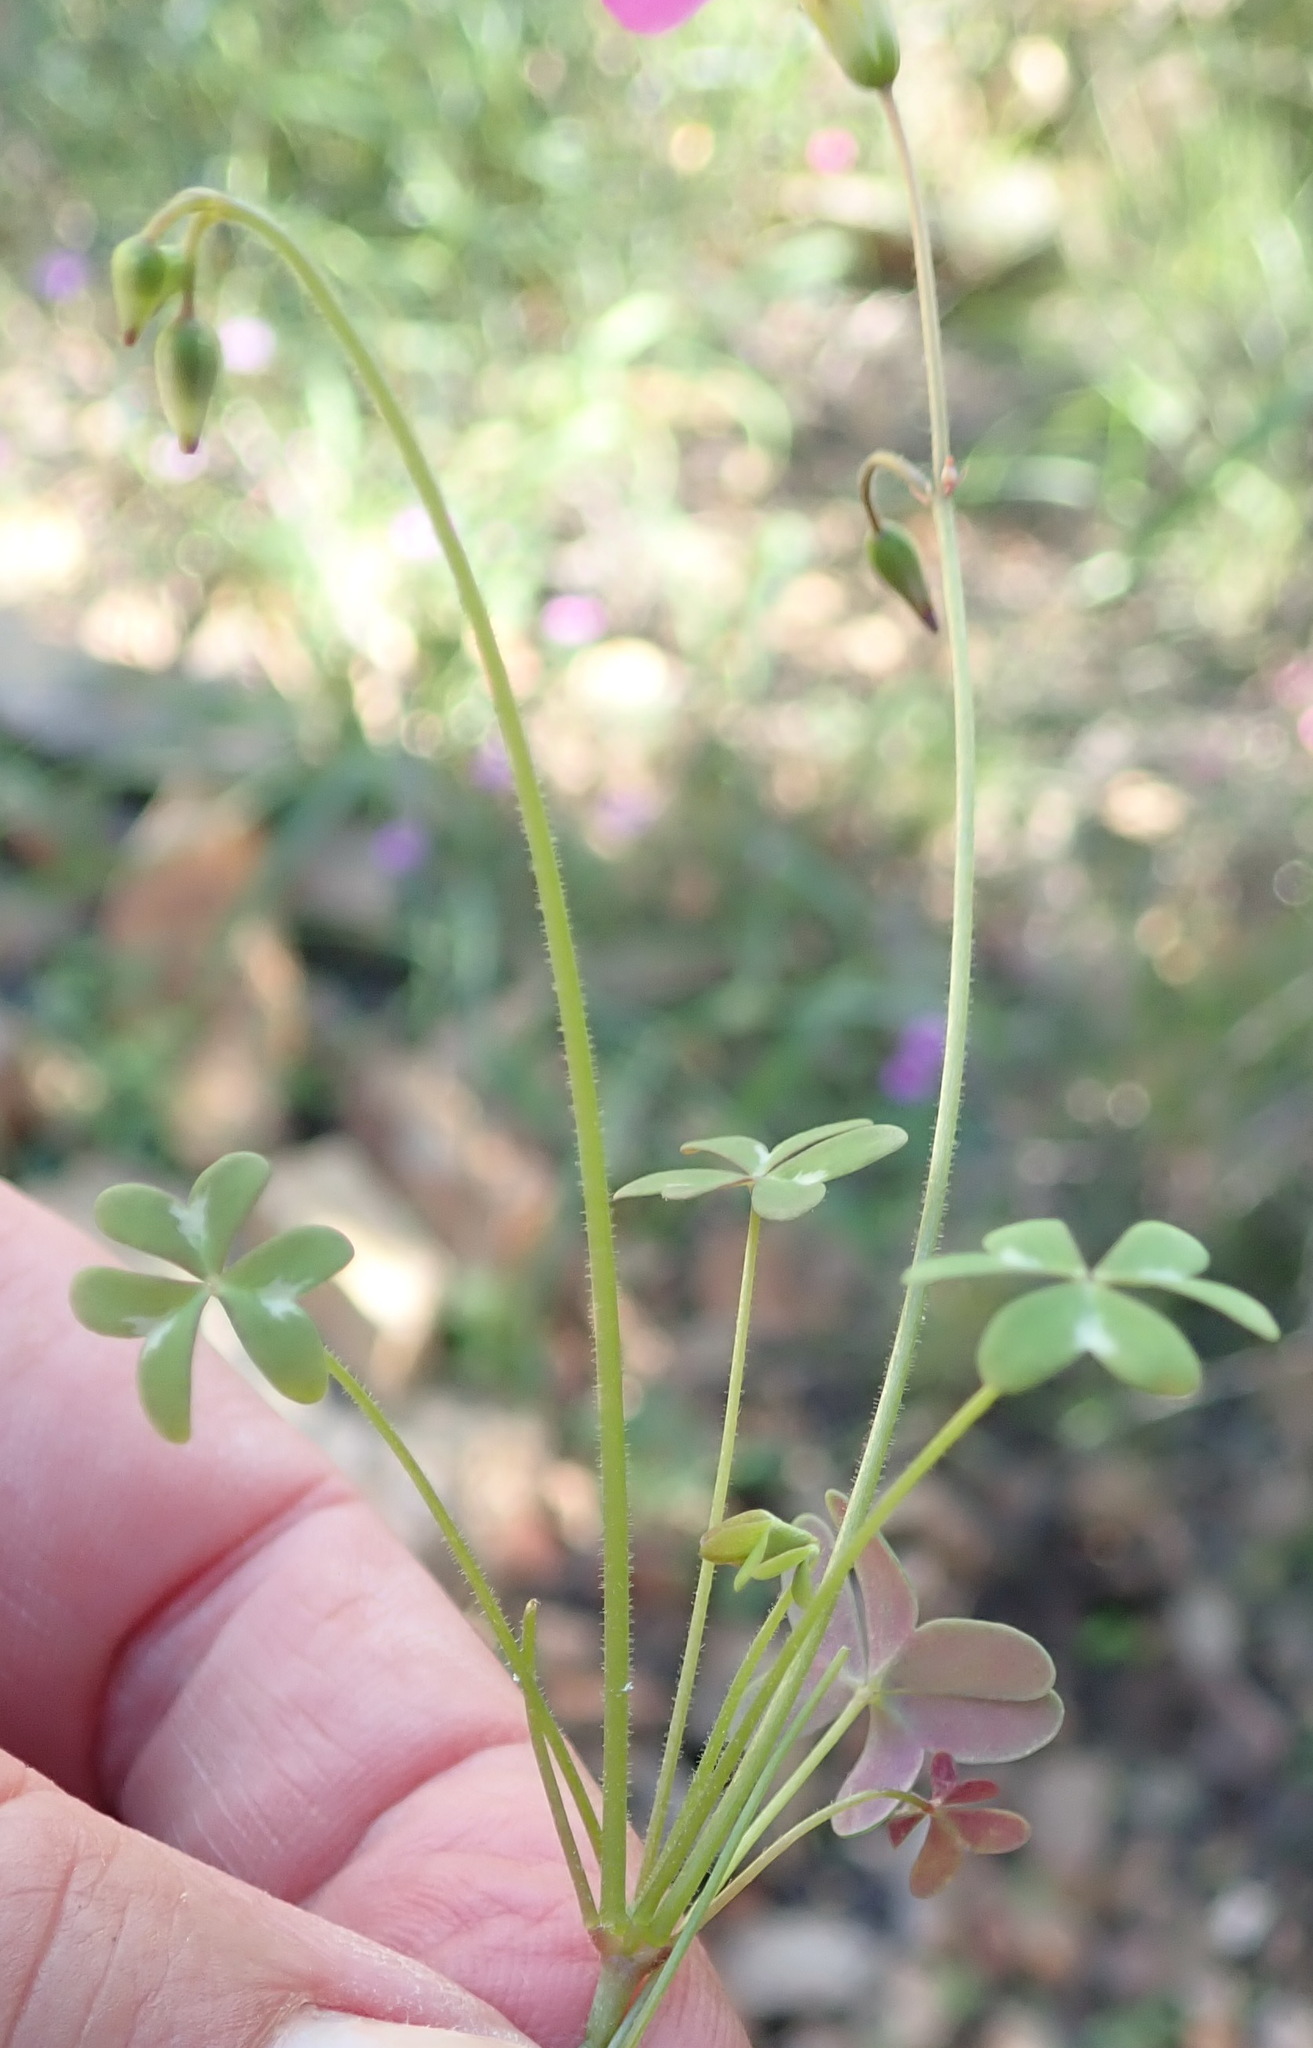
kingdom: Plantae
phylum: Tracheophyta
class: Magnoliopsida
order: Oxalidales
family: Oxalidaceae
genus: Oxalis
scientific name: Oxalis stellata
